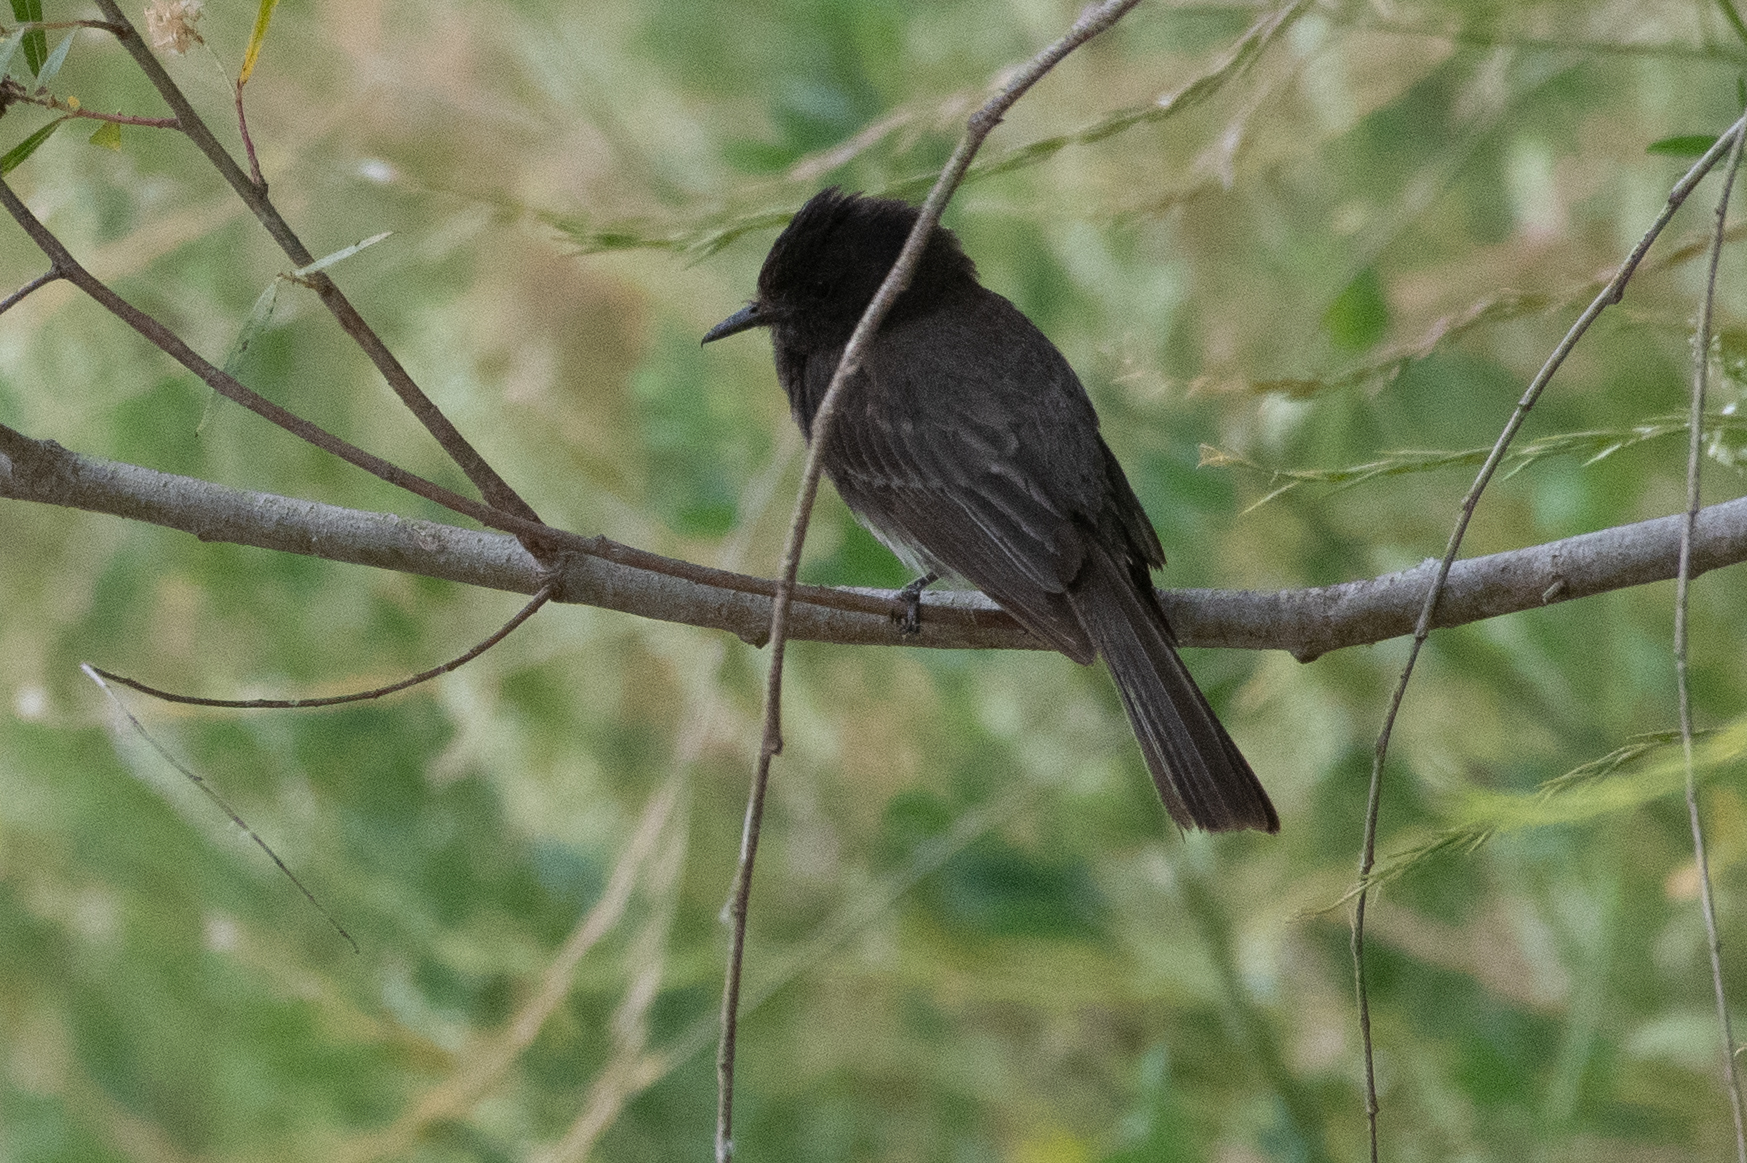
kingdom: Animalia
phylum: Chordata
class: Aves
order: Passeriformes
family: Tyrannidae
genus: Sayornis
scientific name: Sayornis nigricans
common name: Black phoebe
